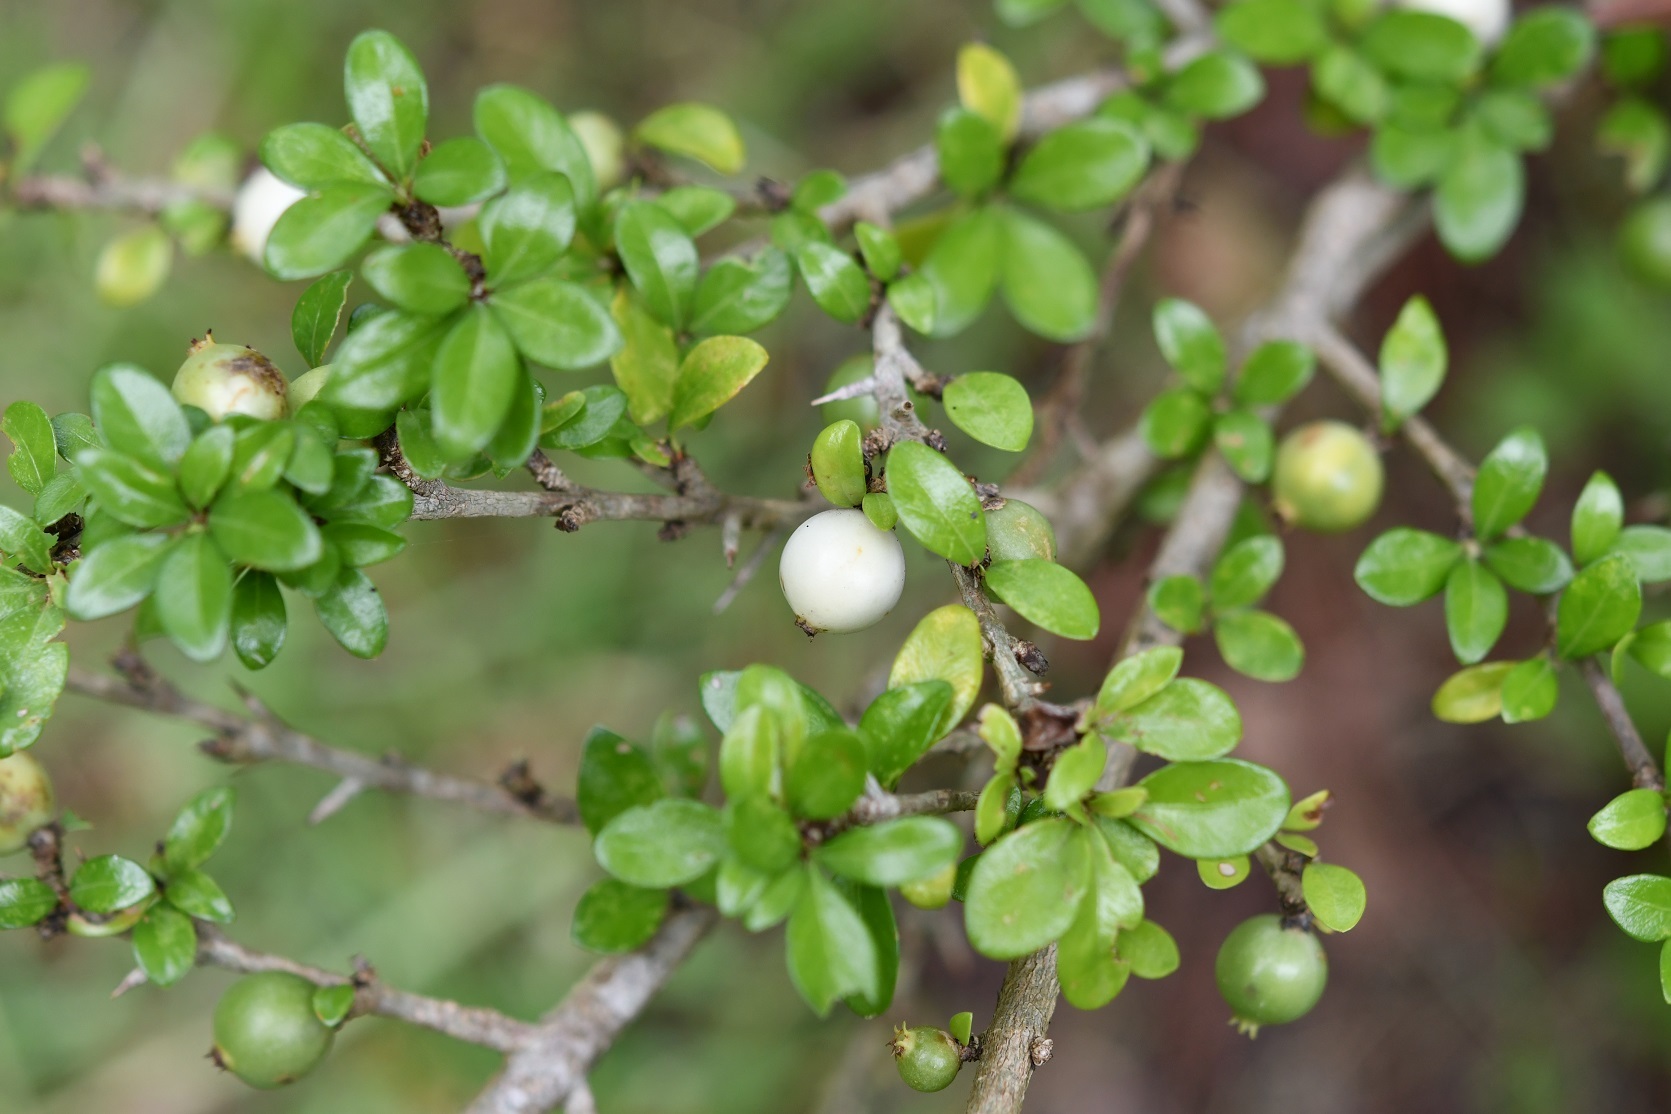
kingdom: Plantae
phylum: Tracheophyta
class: Magnoliopsida
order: Gentianales
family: Rubiaceae
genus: Randia
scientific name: Randia chiapensis
